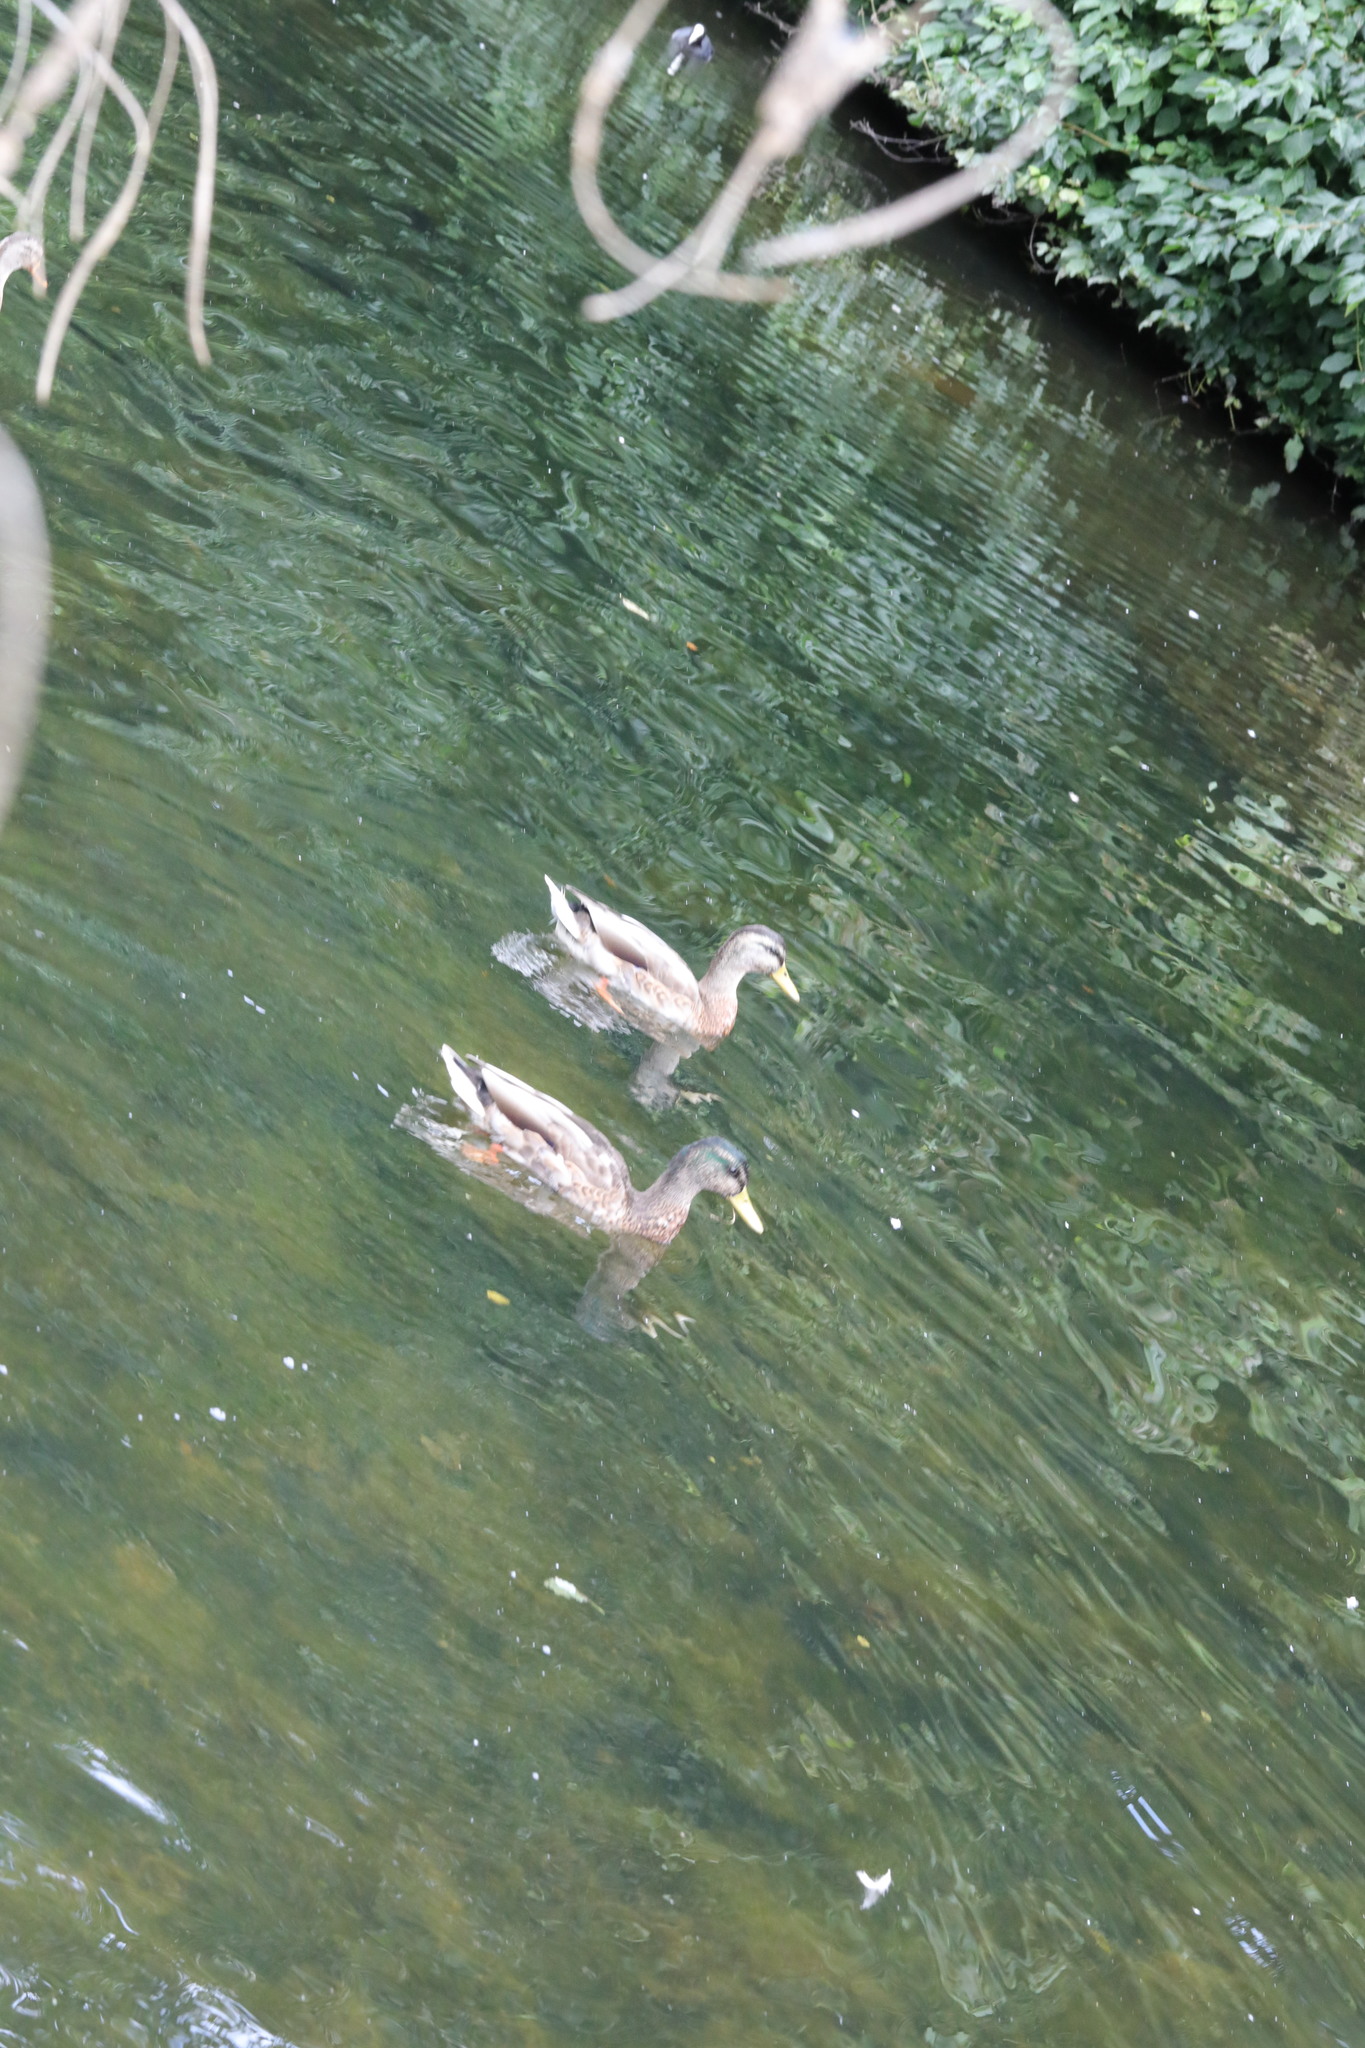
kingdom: Animalia
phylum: Chordata
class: Aves
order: Anseriformes
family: Anatidae
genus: Anas
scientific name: Anas platyrhynchos
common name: Mallard
